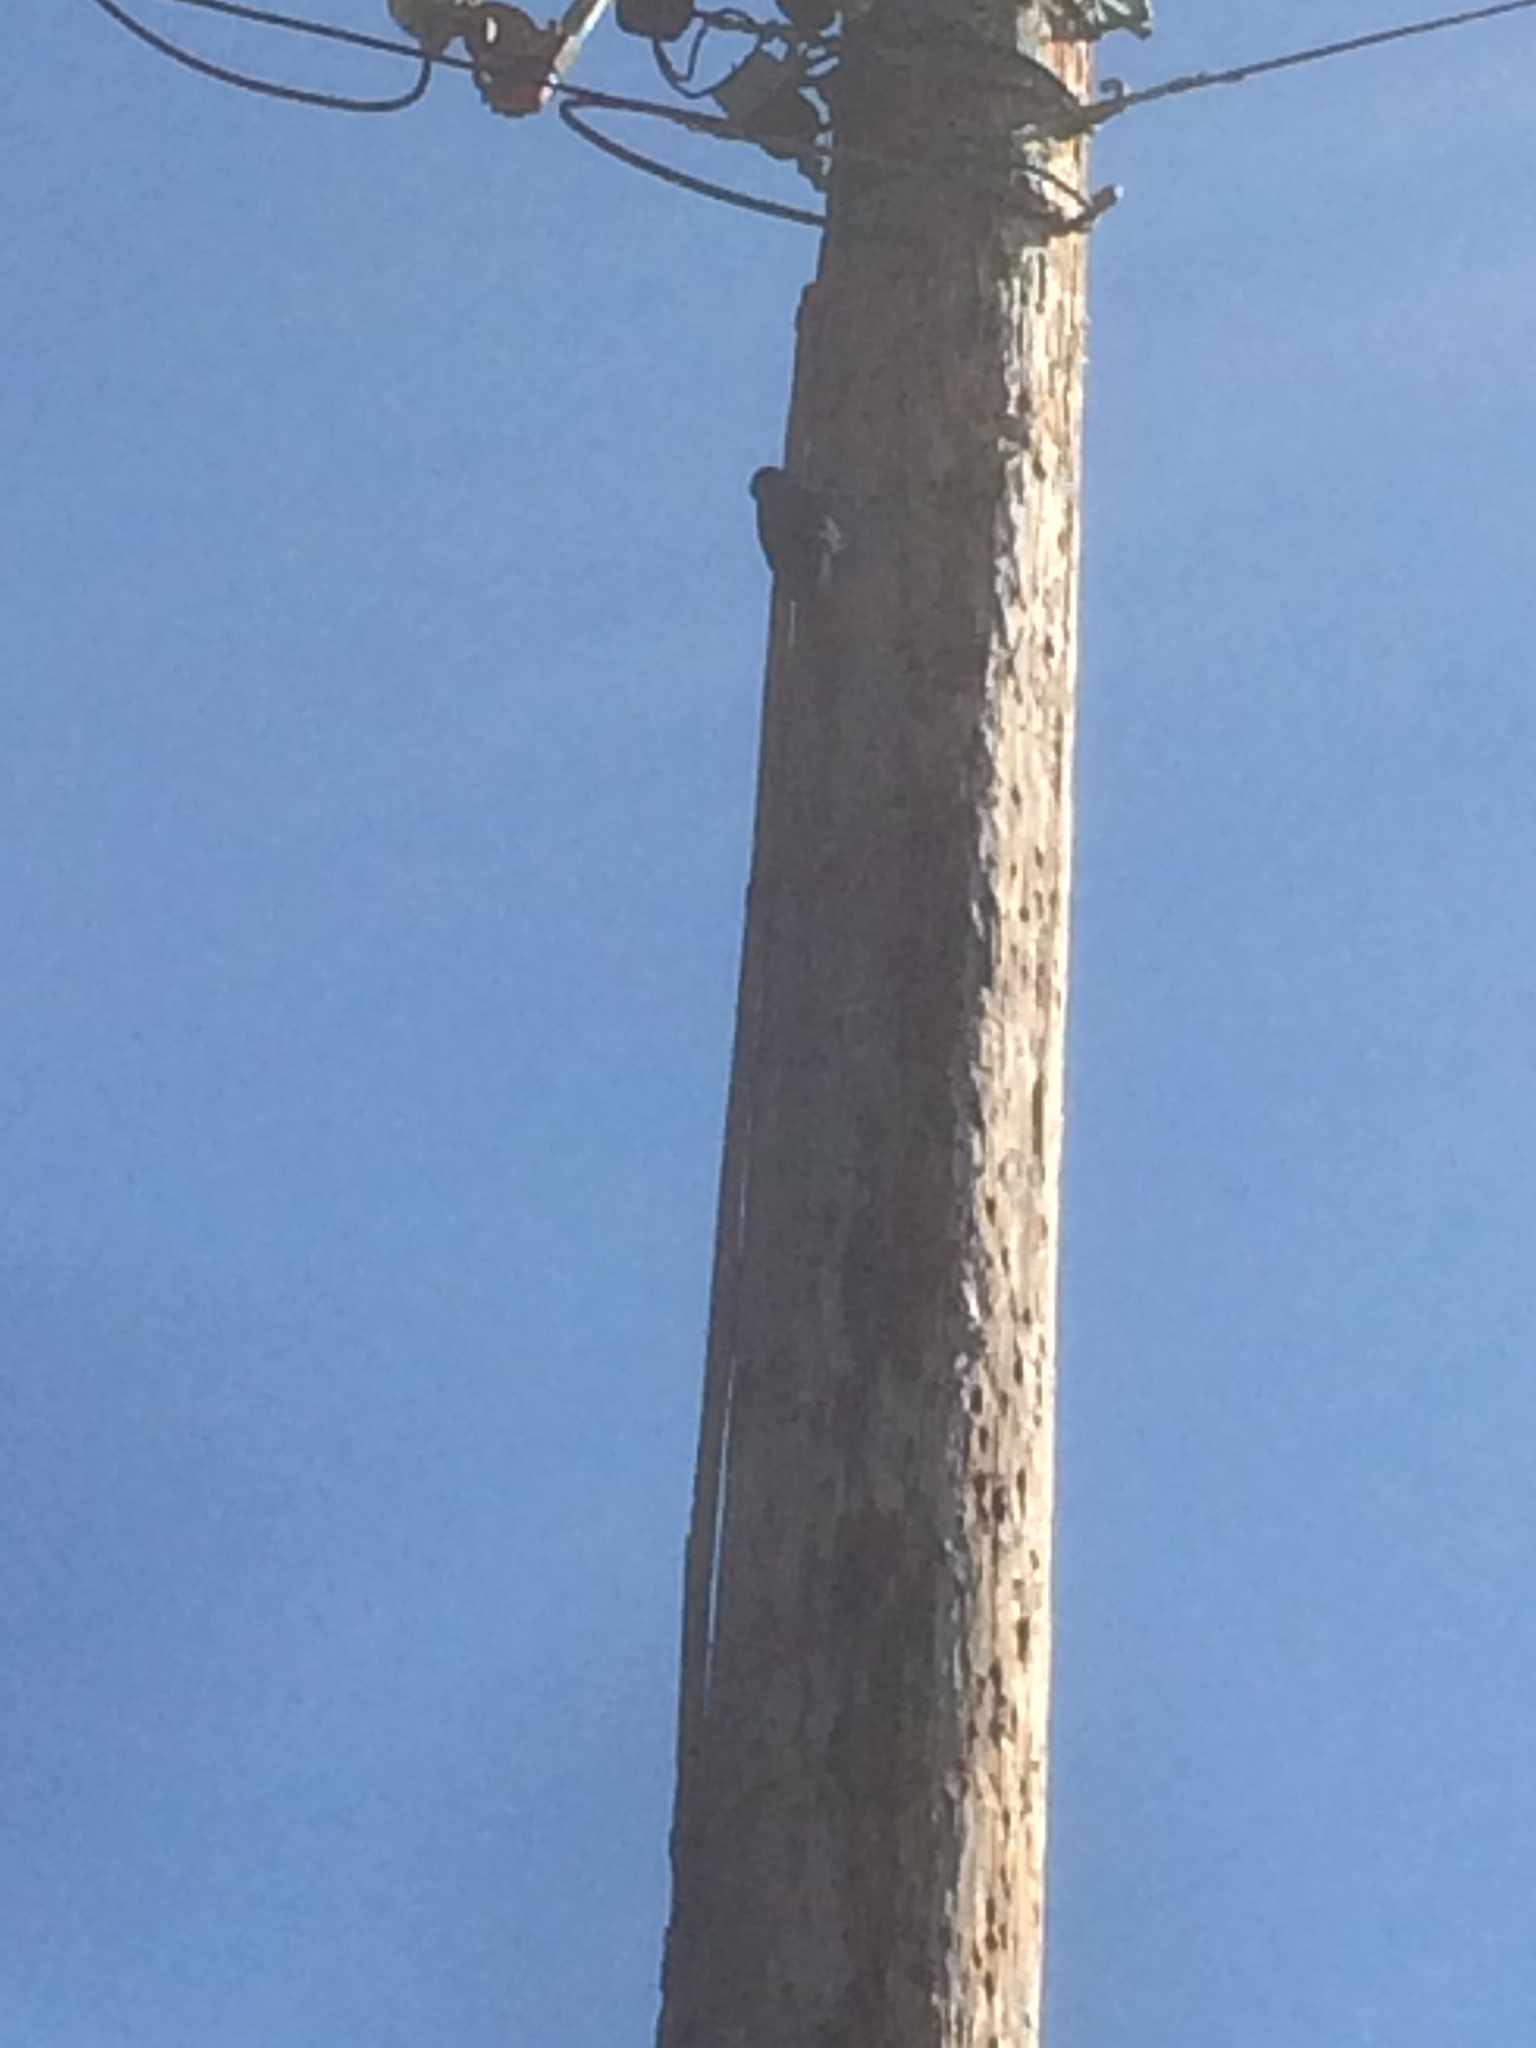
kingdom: Animalia
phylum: Chordata
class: Aves
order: Piciformes
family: Picidae
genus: Melanerpes
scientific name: Melanerpes formicivorus
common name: Acorn woodpecker
